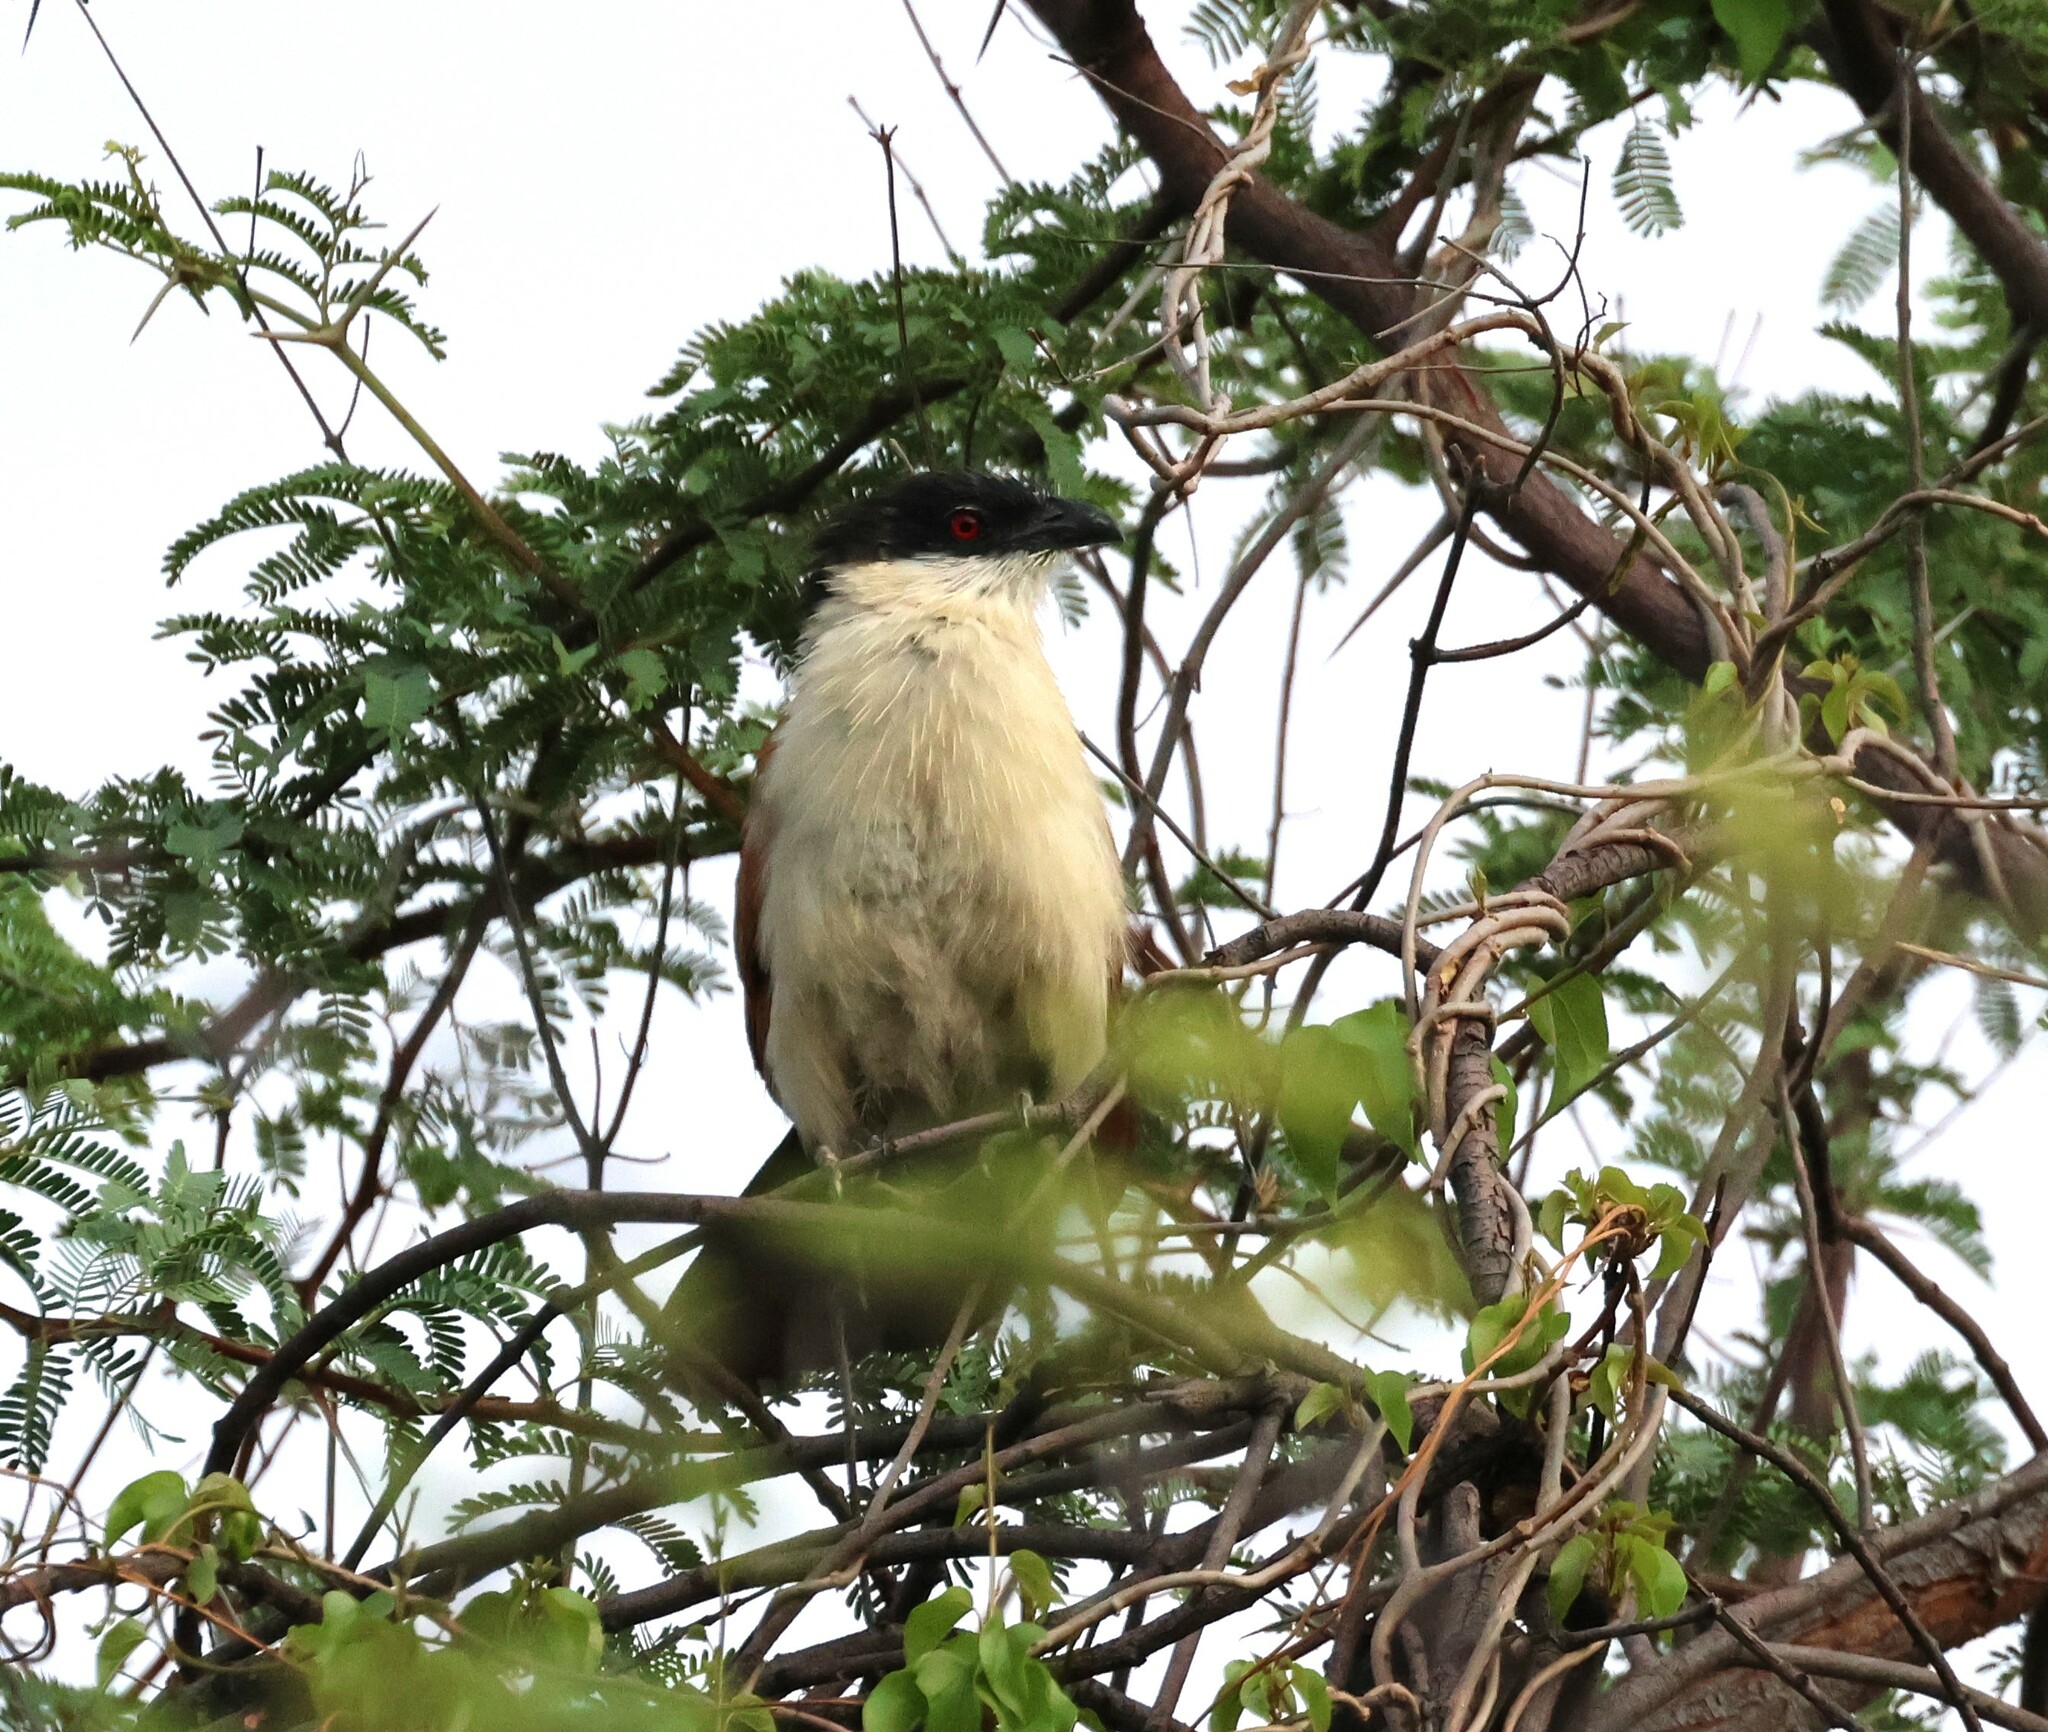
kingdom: Animalia
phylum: Chordata
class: Aves
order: Cuculiformes
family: Cuculidae
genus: Centropus
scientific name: Centropus senegalensis
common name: Senegal coucal
